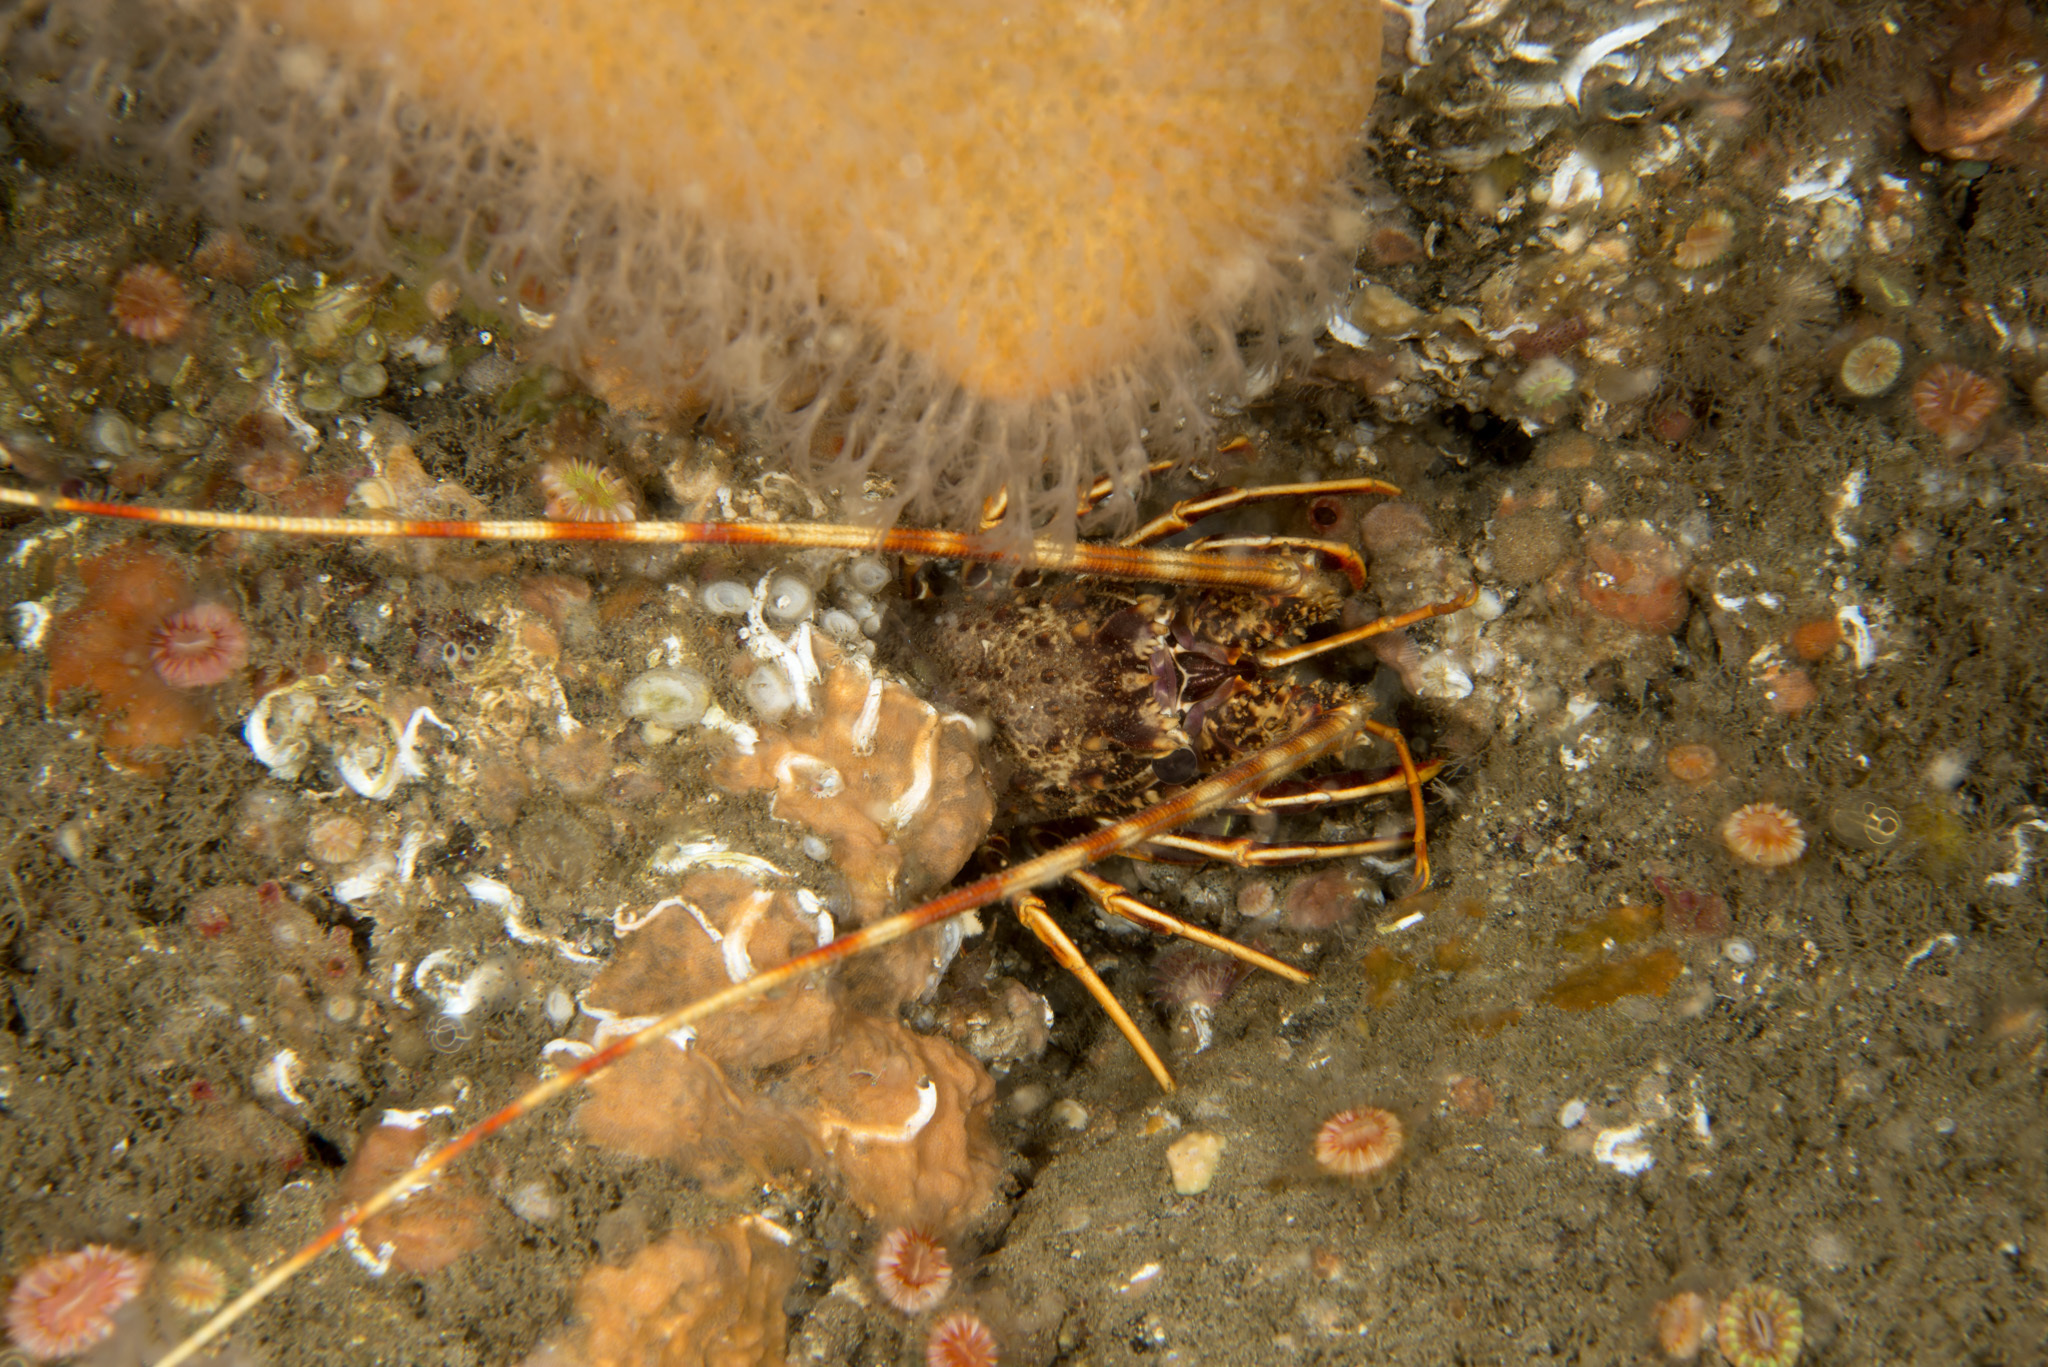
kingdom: Animalia
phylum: Arthropoda
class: Malacostraca
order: Decapoda
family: Palinuridae
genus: Palinurus
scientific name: Palinurus elephas
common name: European spiny lobster
